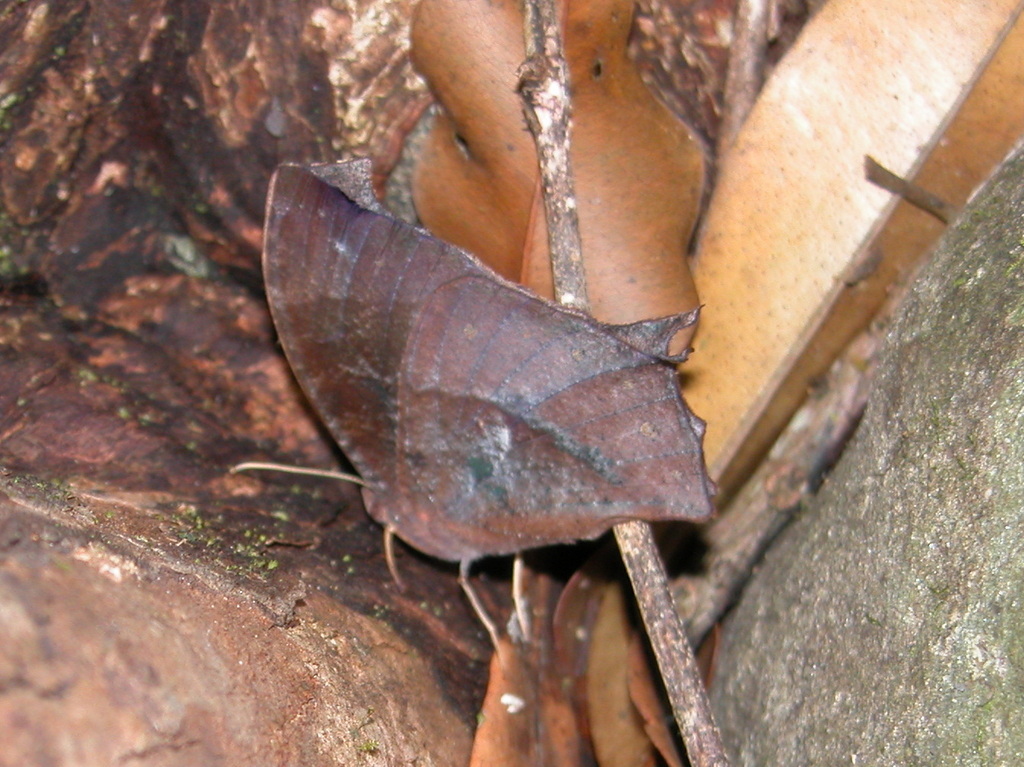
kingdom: Animalia
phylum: Arthropoda
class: Insecta
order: Lepidoptera
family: Nymphalidae
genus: Melanitis
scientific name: Melanitis zitenius
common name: Great evening brown
